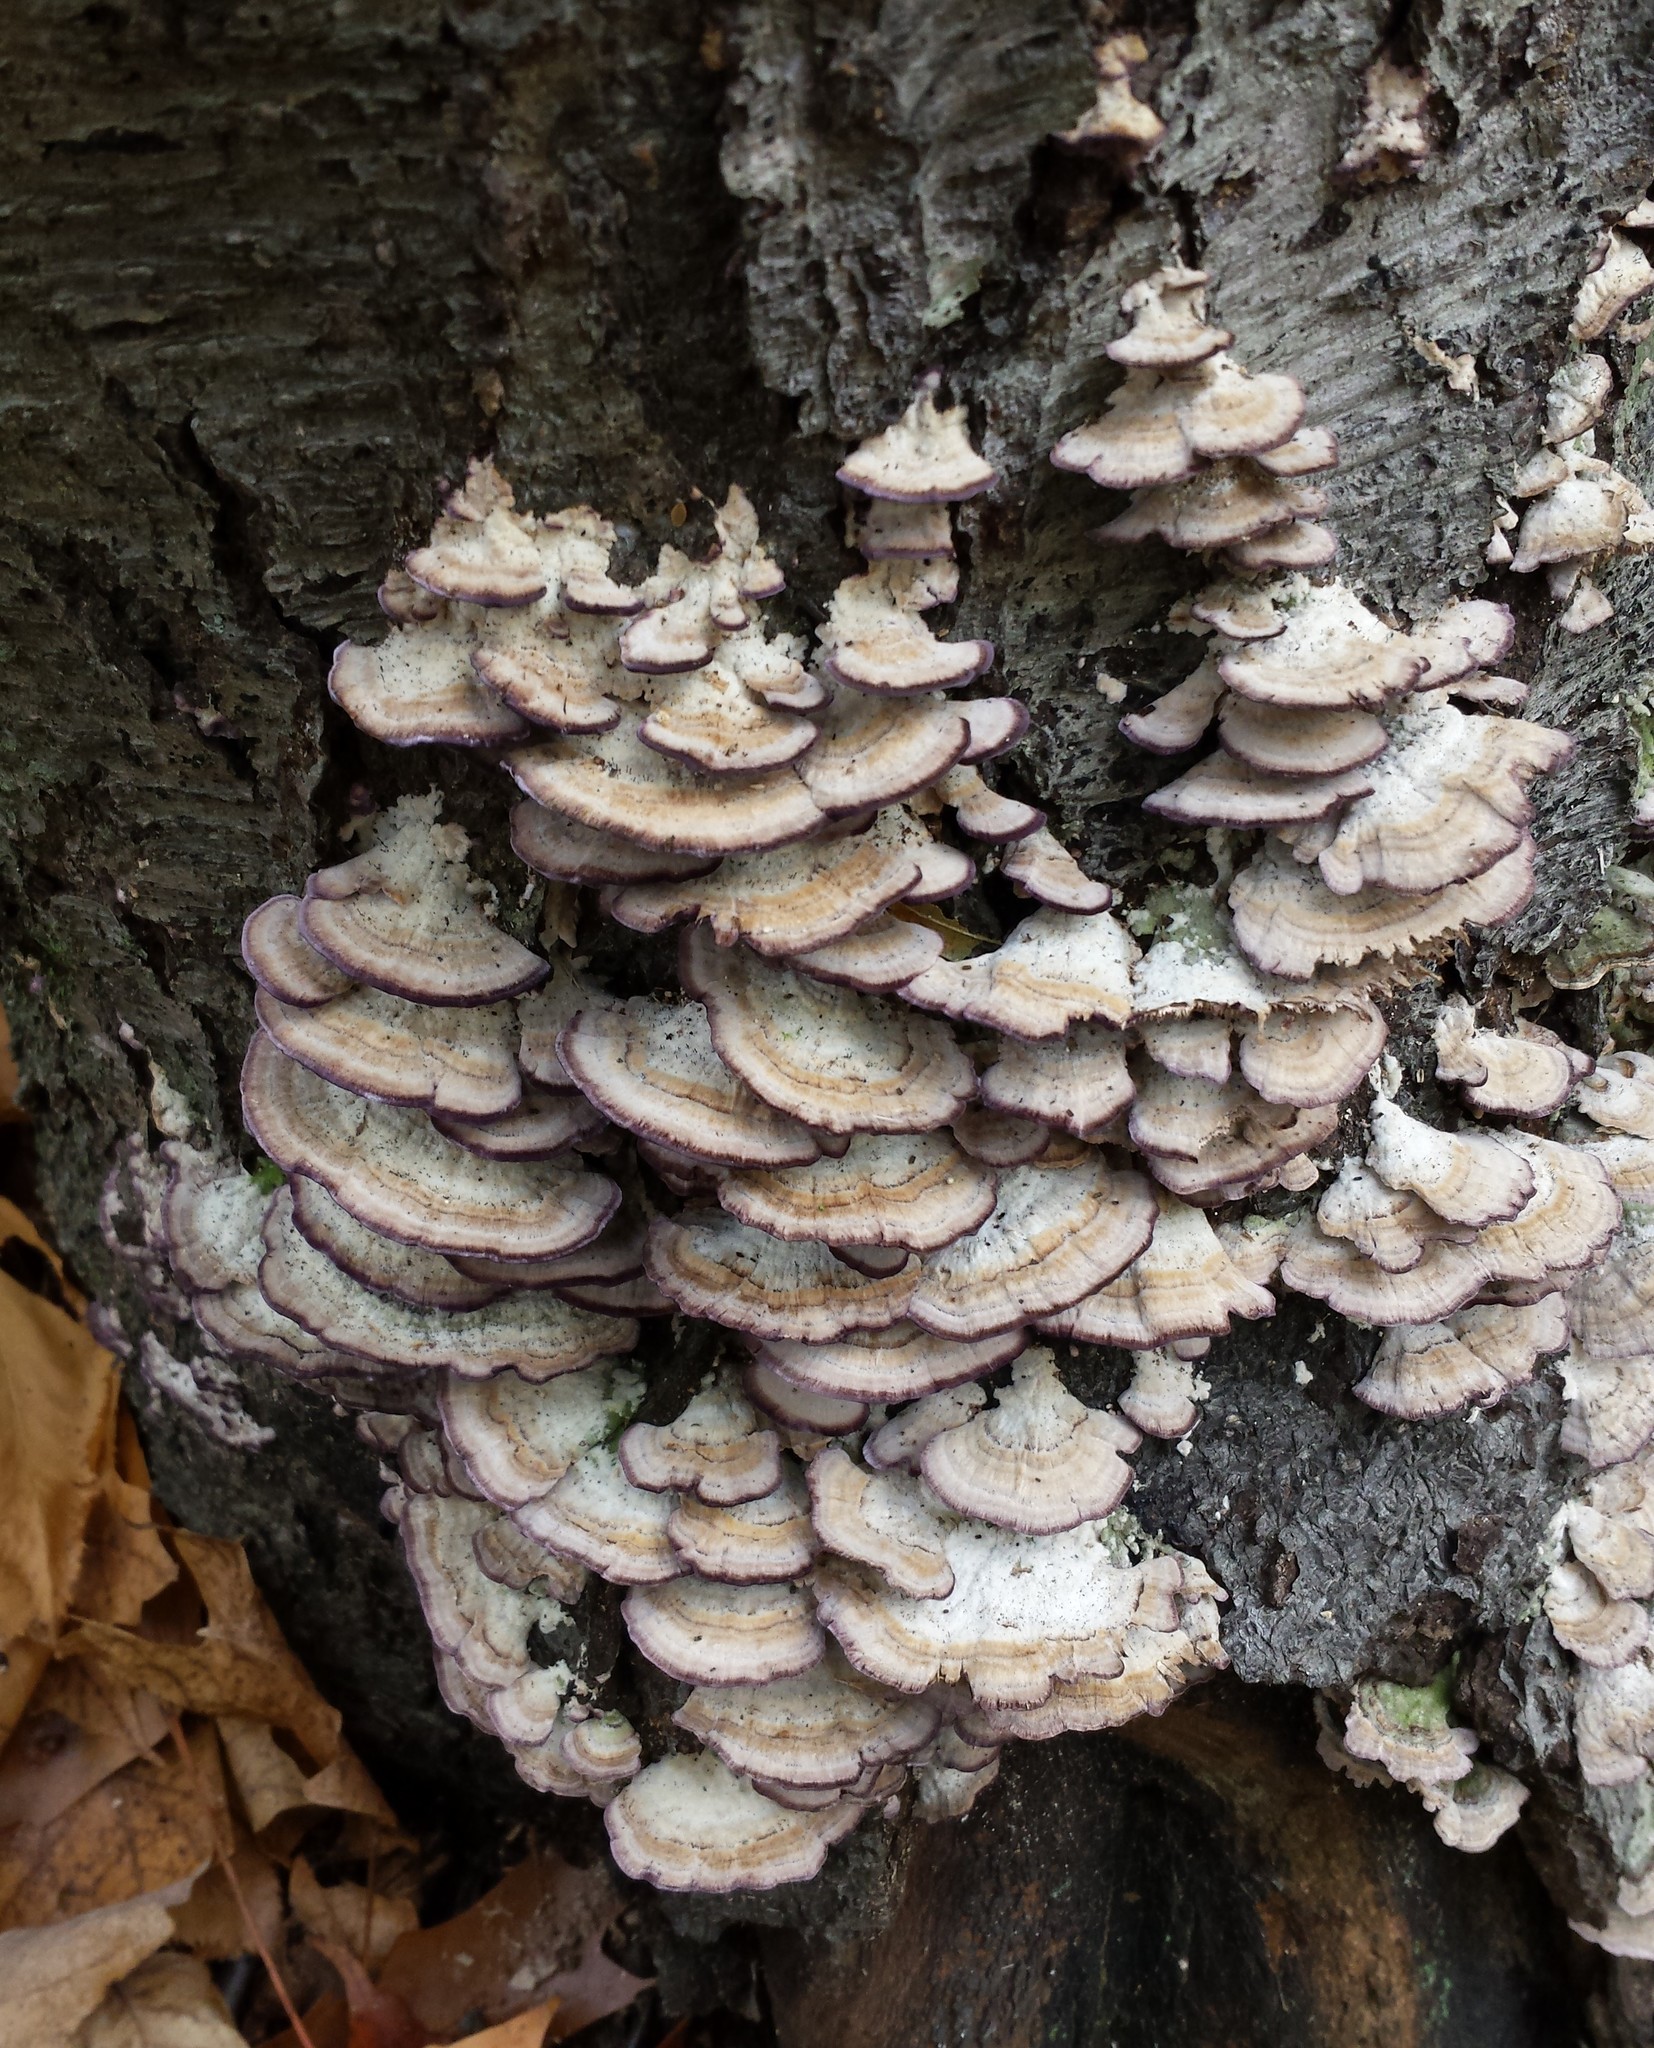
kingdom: Fungi
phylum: Basidiomycota
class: Agaricomycetes
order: Hymenochaetales
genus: Trichaptum
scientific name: Trichaptum biforme
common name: Violet-toothed polypore
